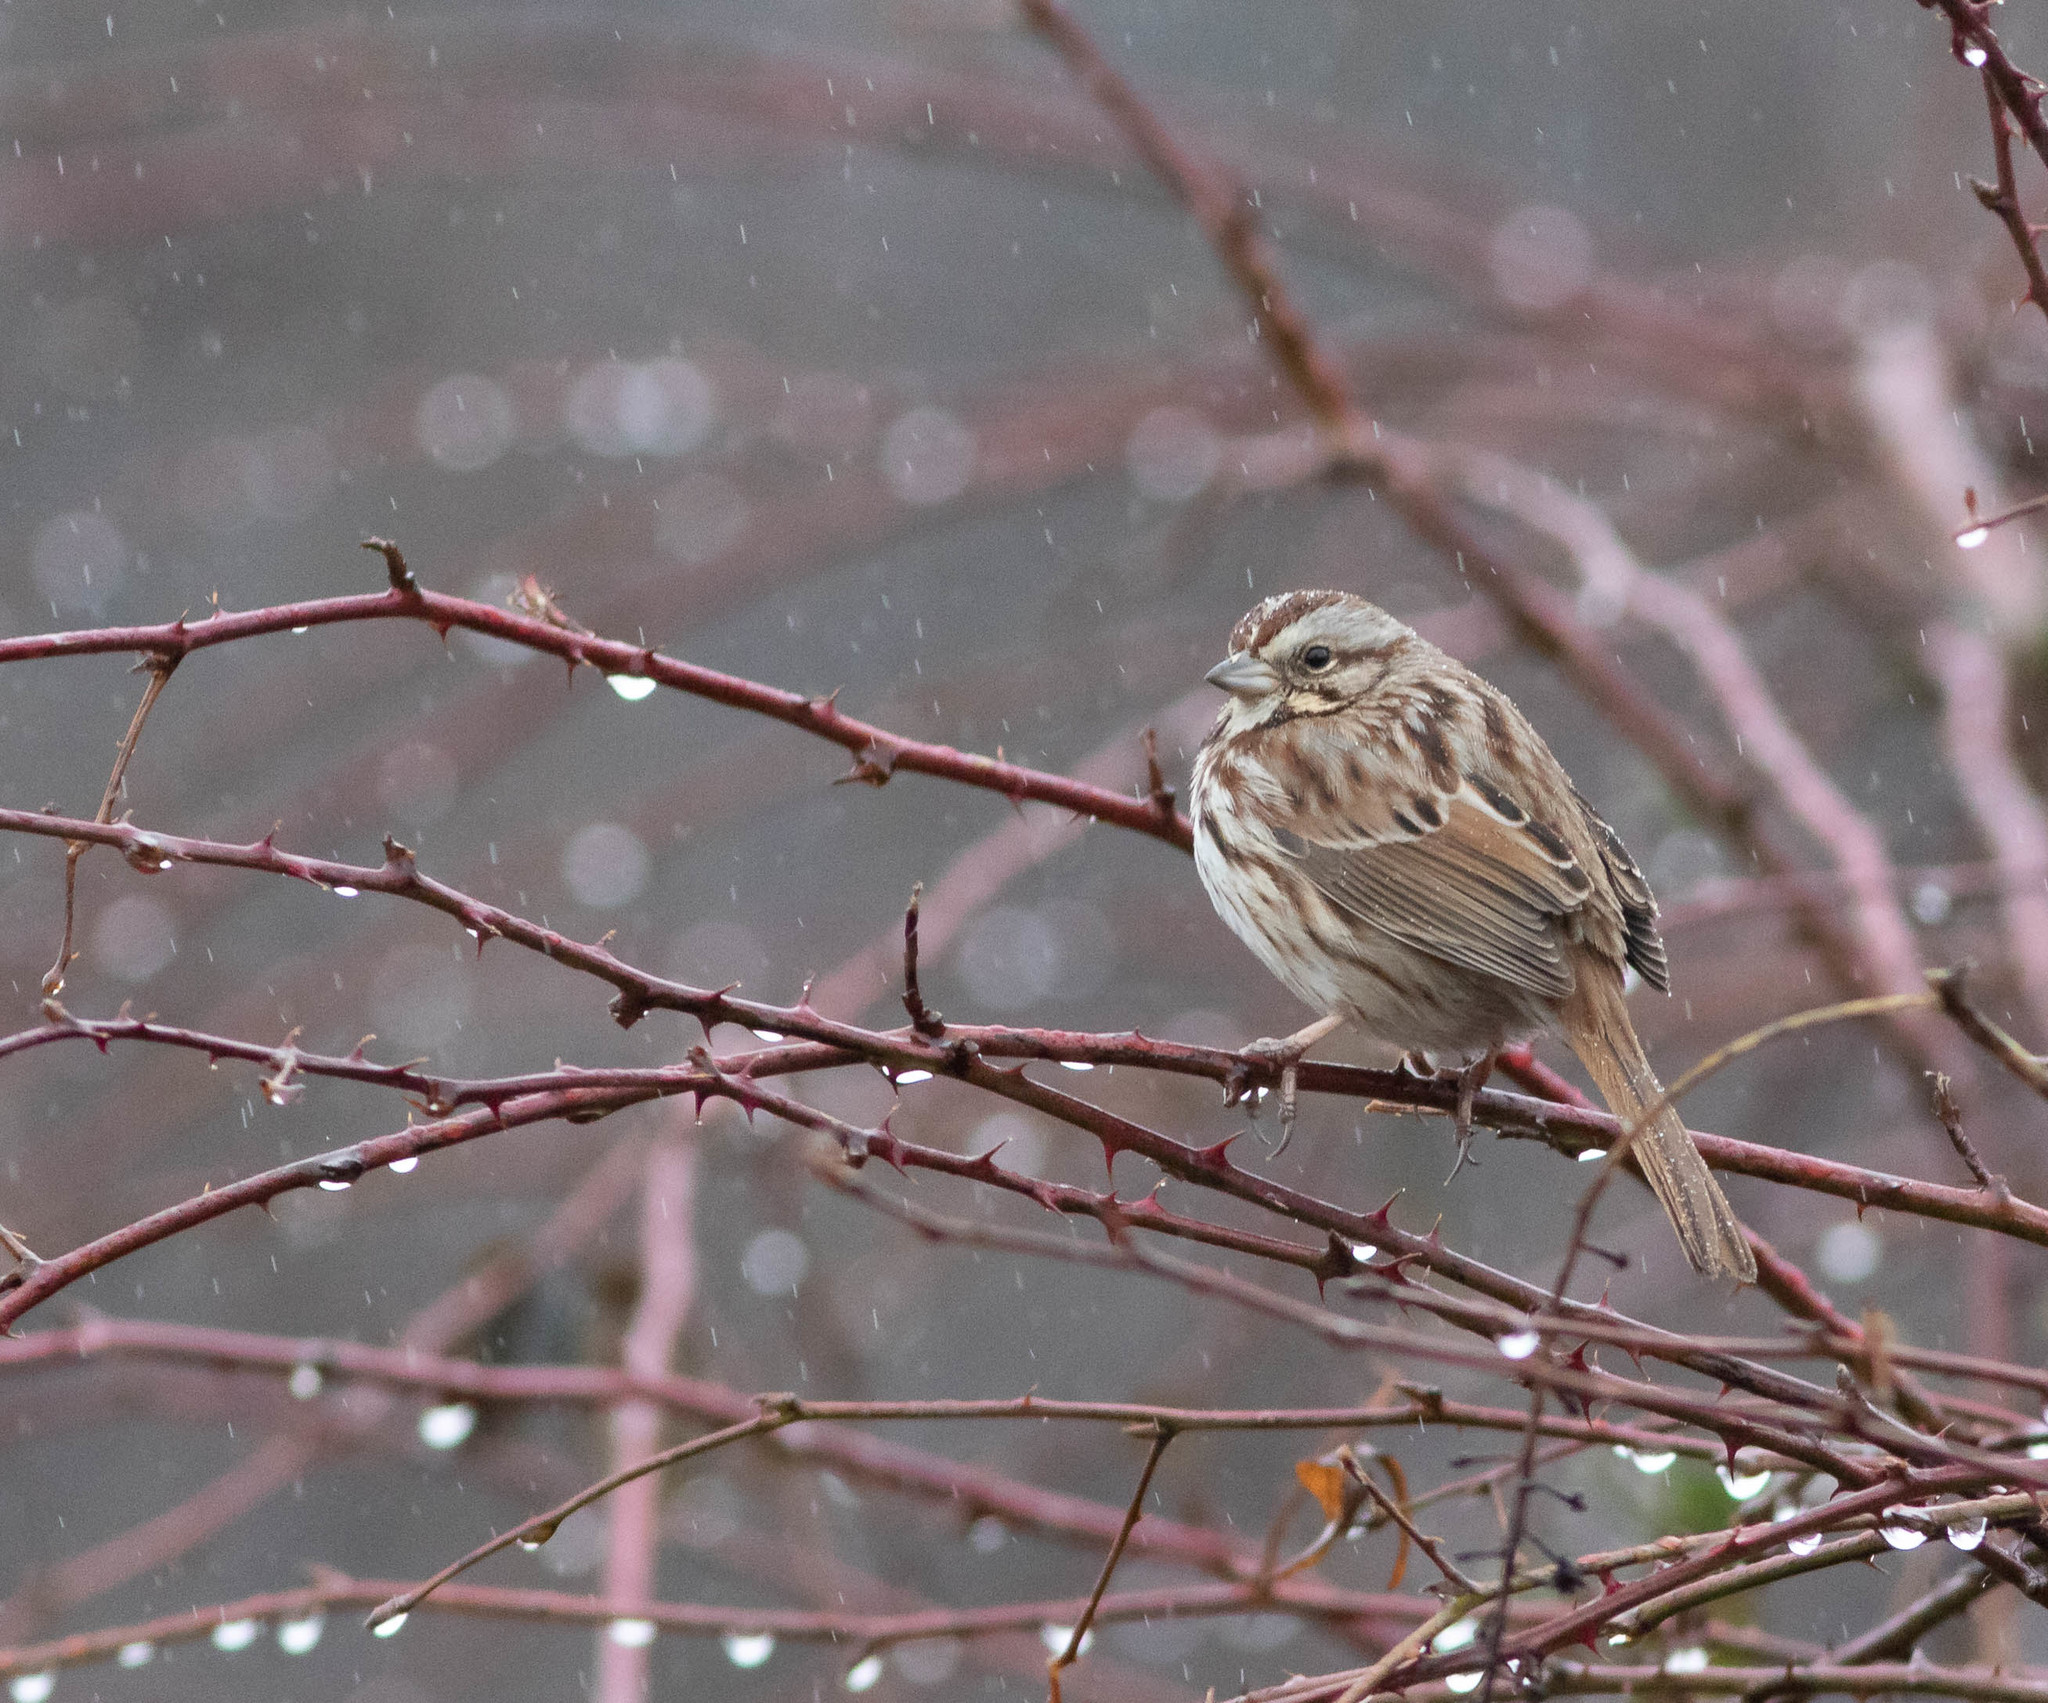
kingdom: Animalia
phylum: Chordata
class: Aves
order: Passeriformes
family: Passerellidae
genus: Melospiza
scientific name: Melospiza melodia
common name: Song sparrow
